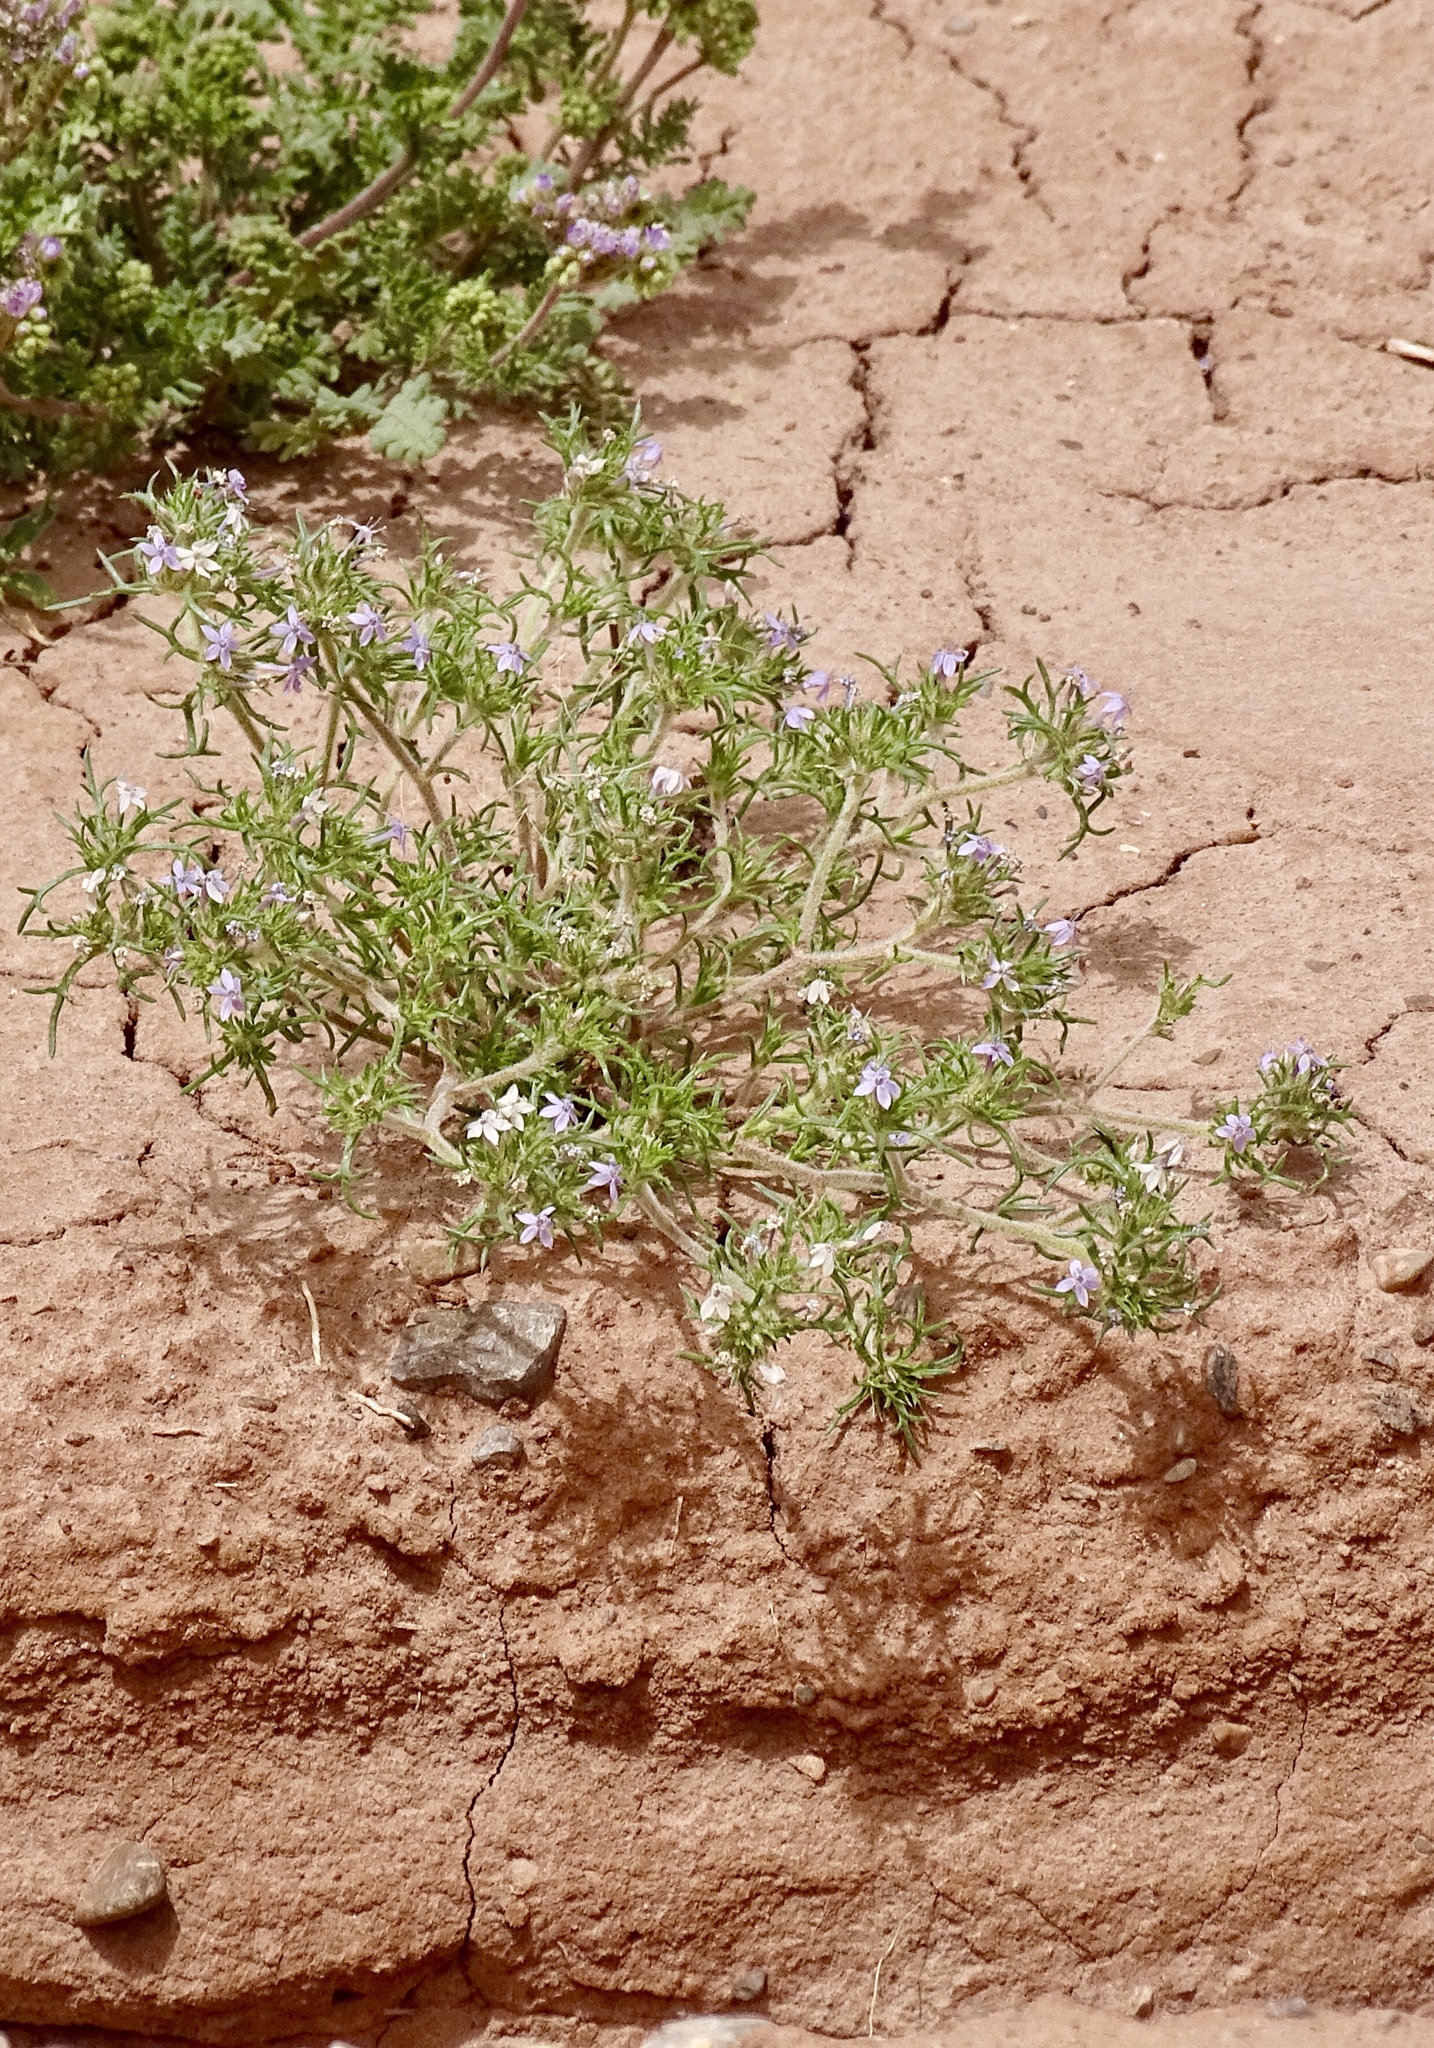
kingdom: Plantae
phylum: Tracheophyta
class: Magnoliopsida
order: Ericales
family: Polemoniaceae
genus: Ipomopsis
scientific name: Ipomopsis pumila
